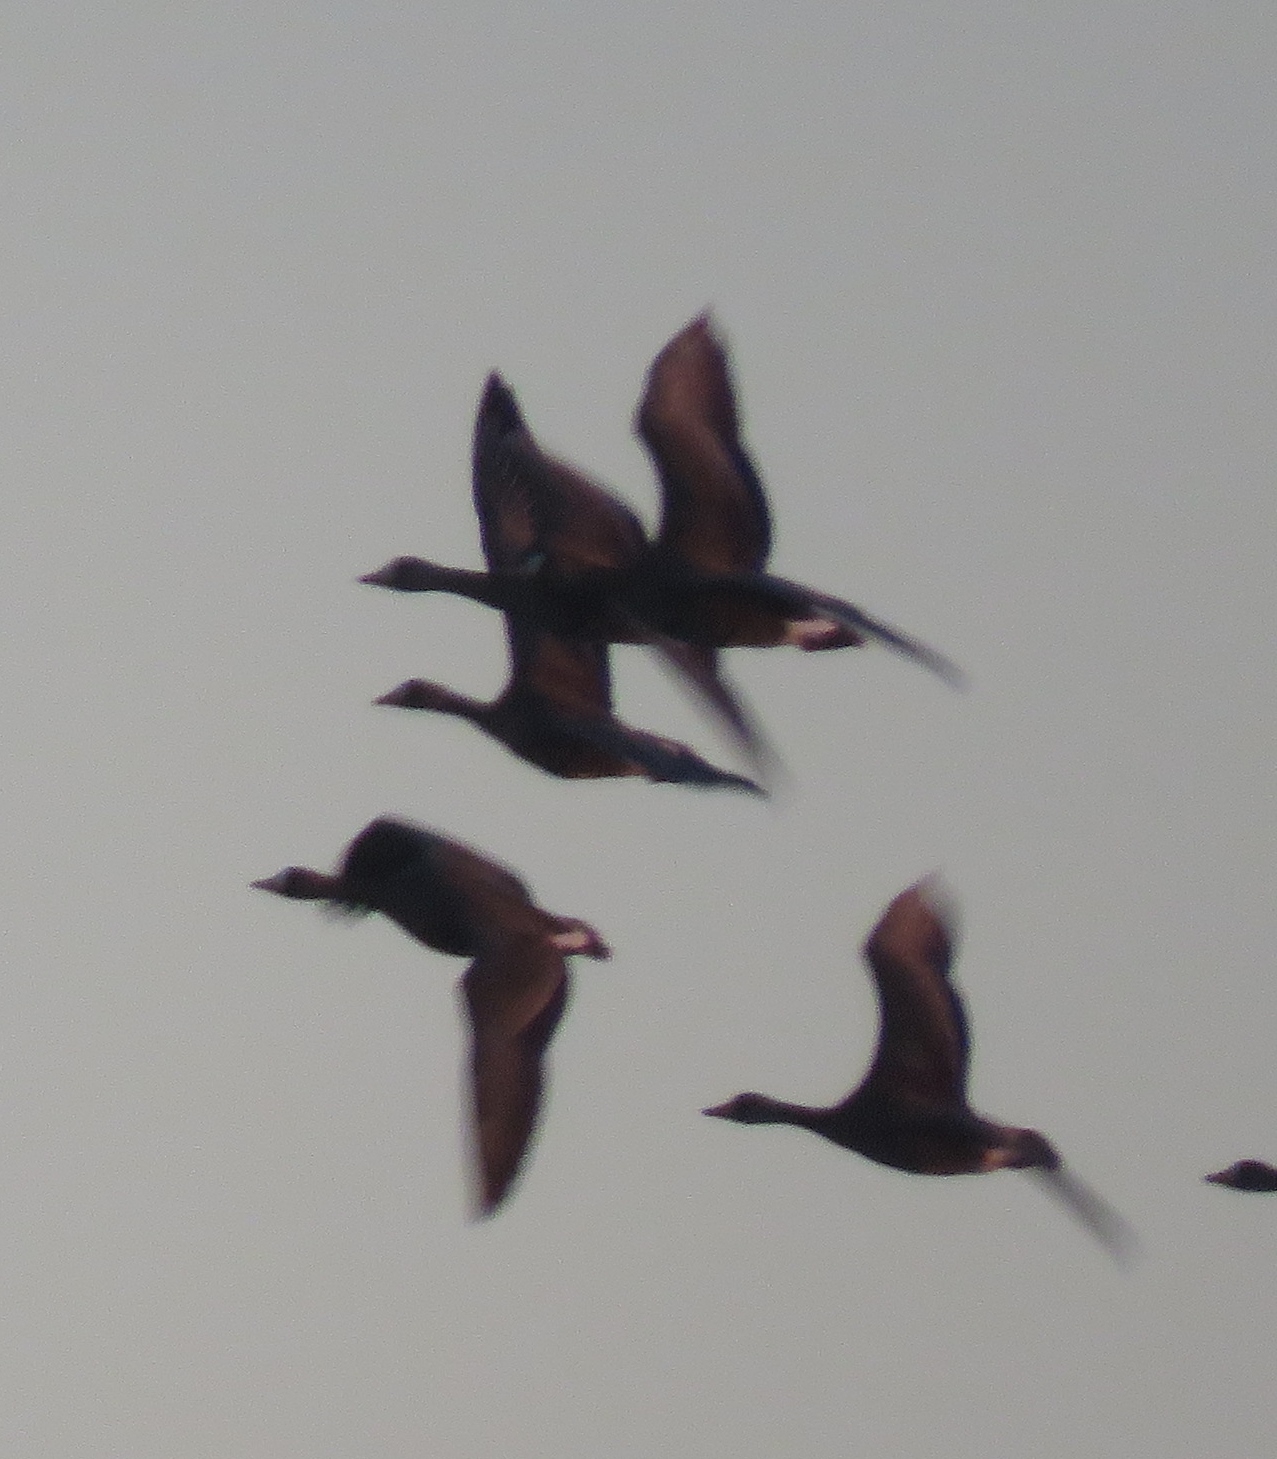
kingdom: Animalia
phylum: Chordata
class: Aves
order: Anseriformes
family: Anatidae
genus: Anser
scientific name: Anser albifrons
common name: Greater white-fronted goose
